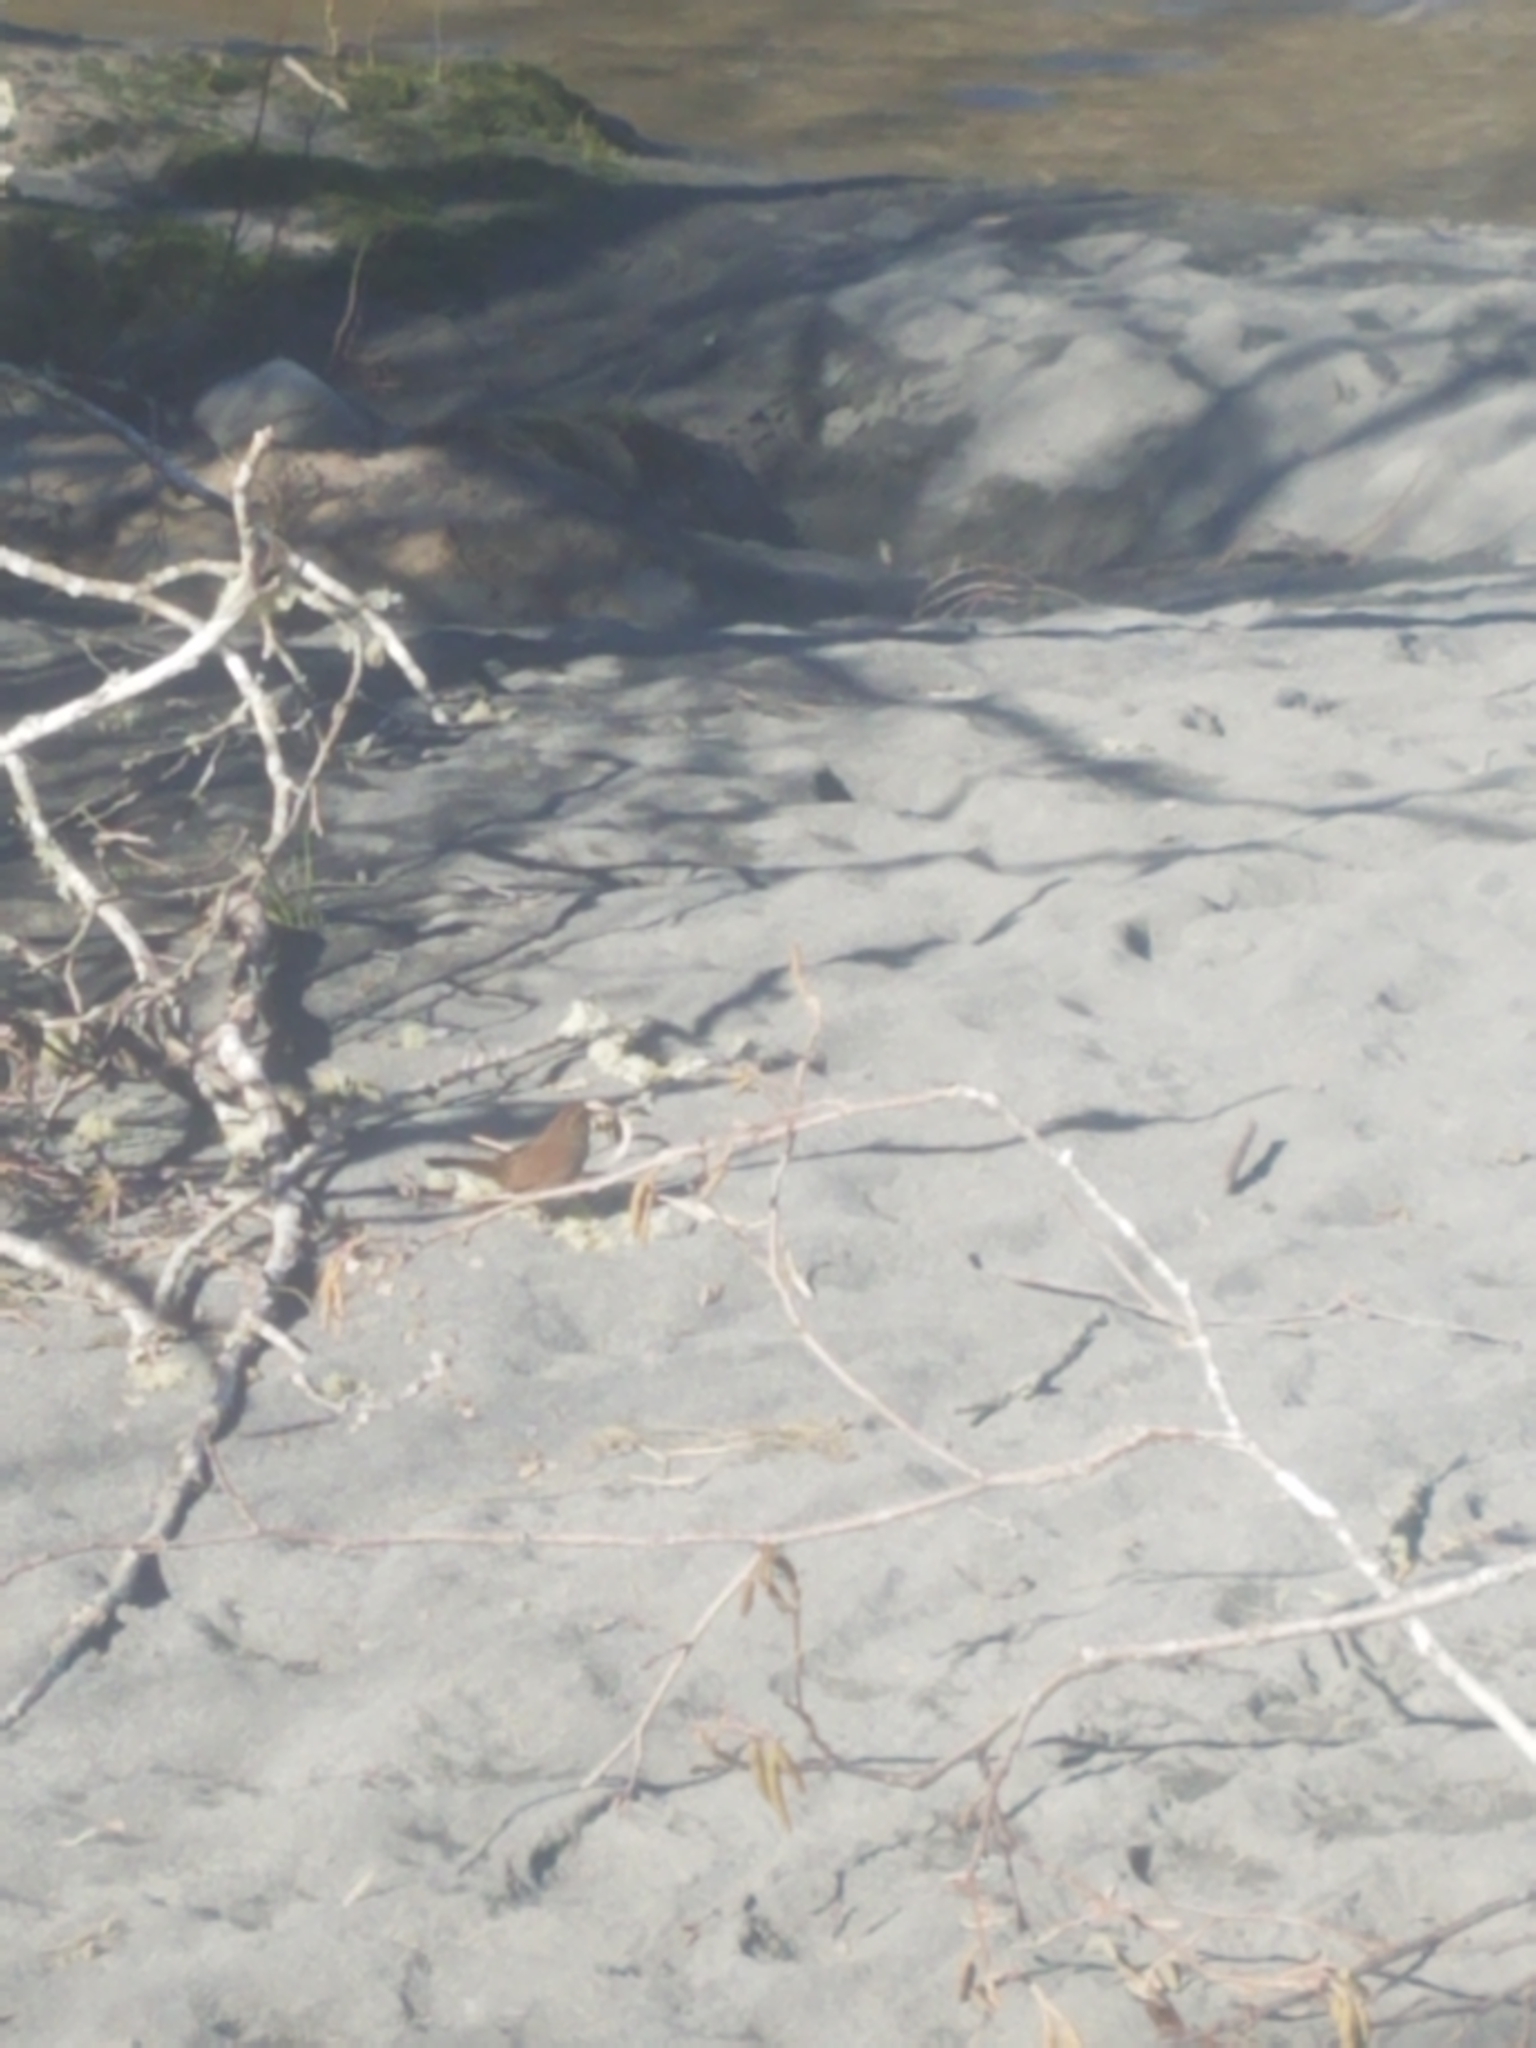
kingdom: Animalia
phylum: Chordata
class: Aves
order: Passeriformes
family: Passerellidae
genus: Melospiza
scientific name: Melospiza melodia
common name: Song sparrow
